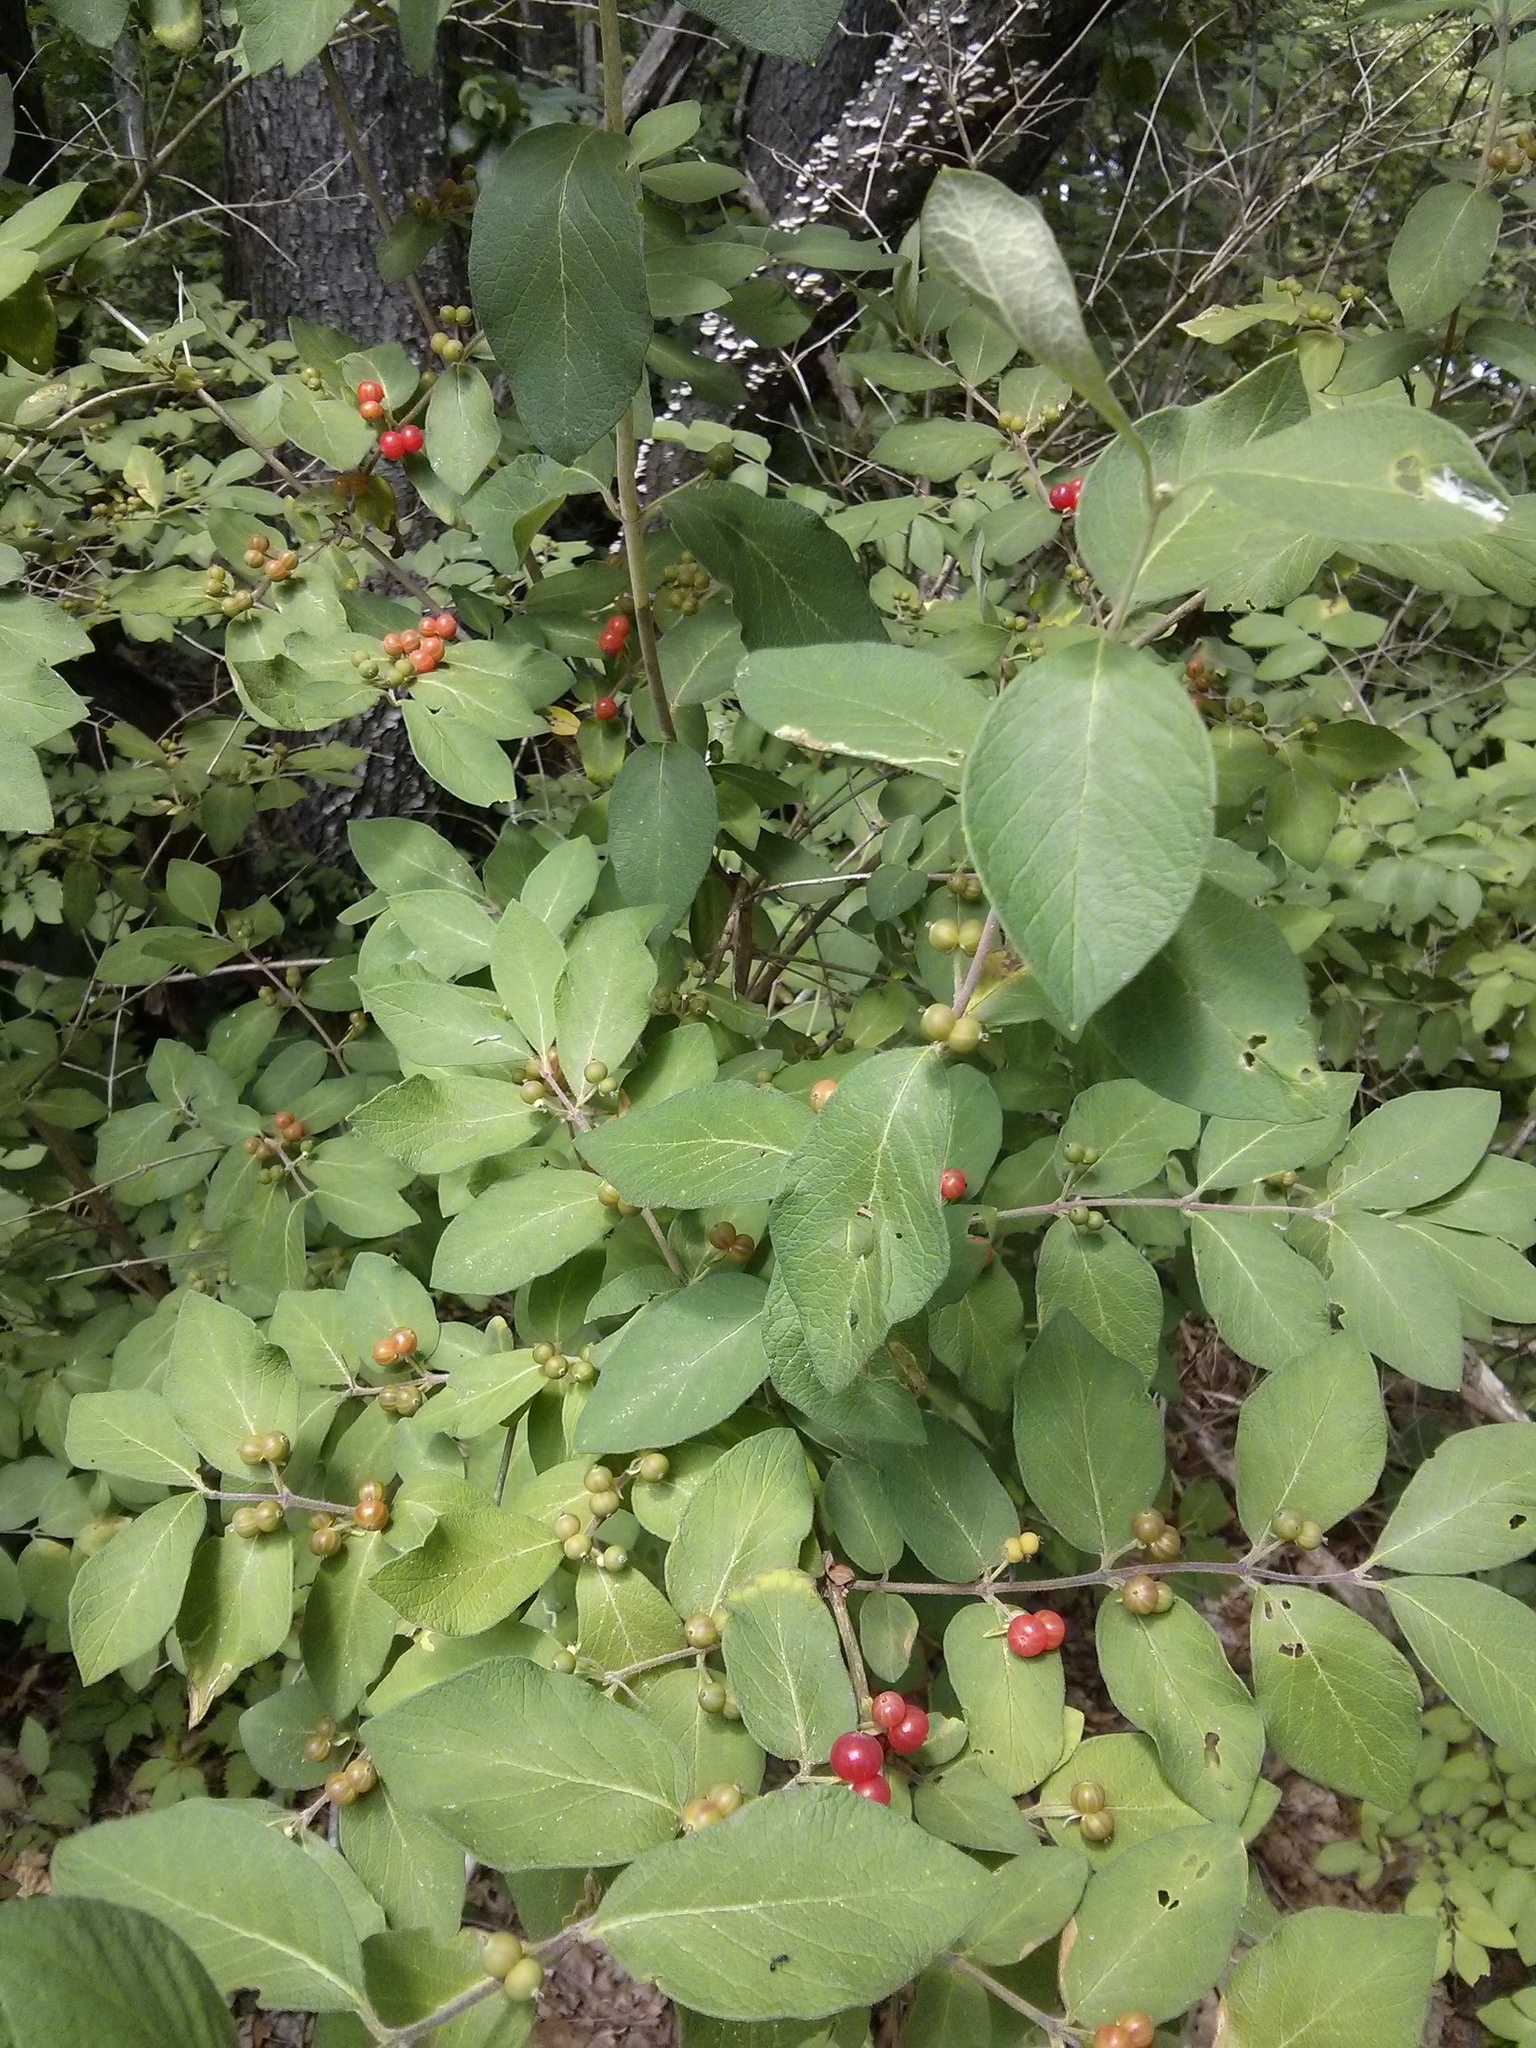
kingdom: Plantae
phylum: Tracheophyta
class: Magnoliopsida
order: Dipsacales
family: Caprifoliaceae
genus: Lonicera
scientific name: Lonicera morrowii
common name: Morrow's honeysuckle
